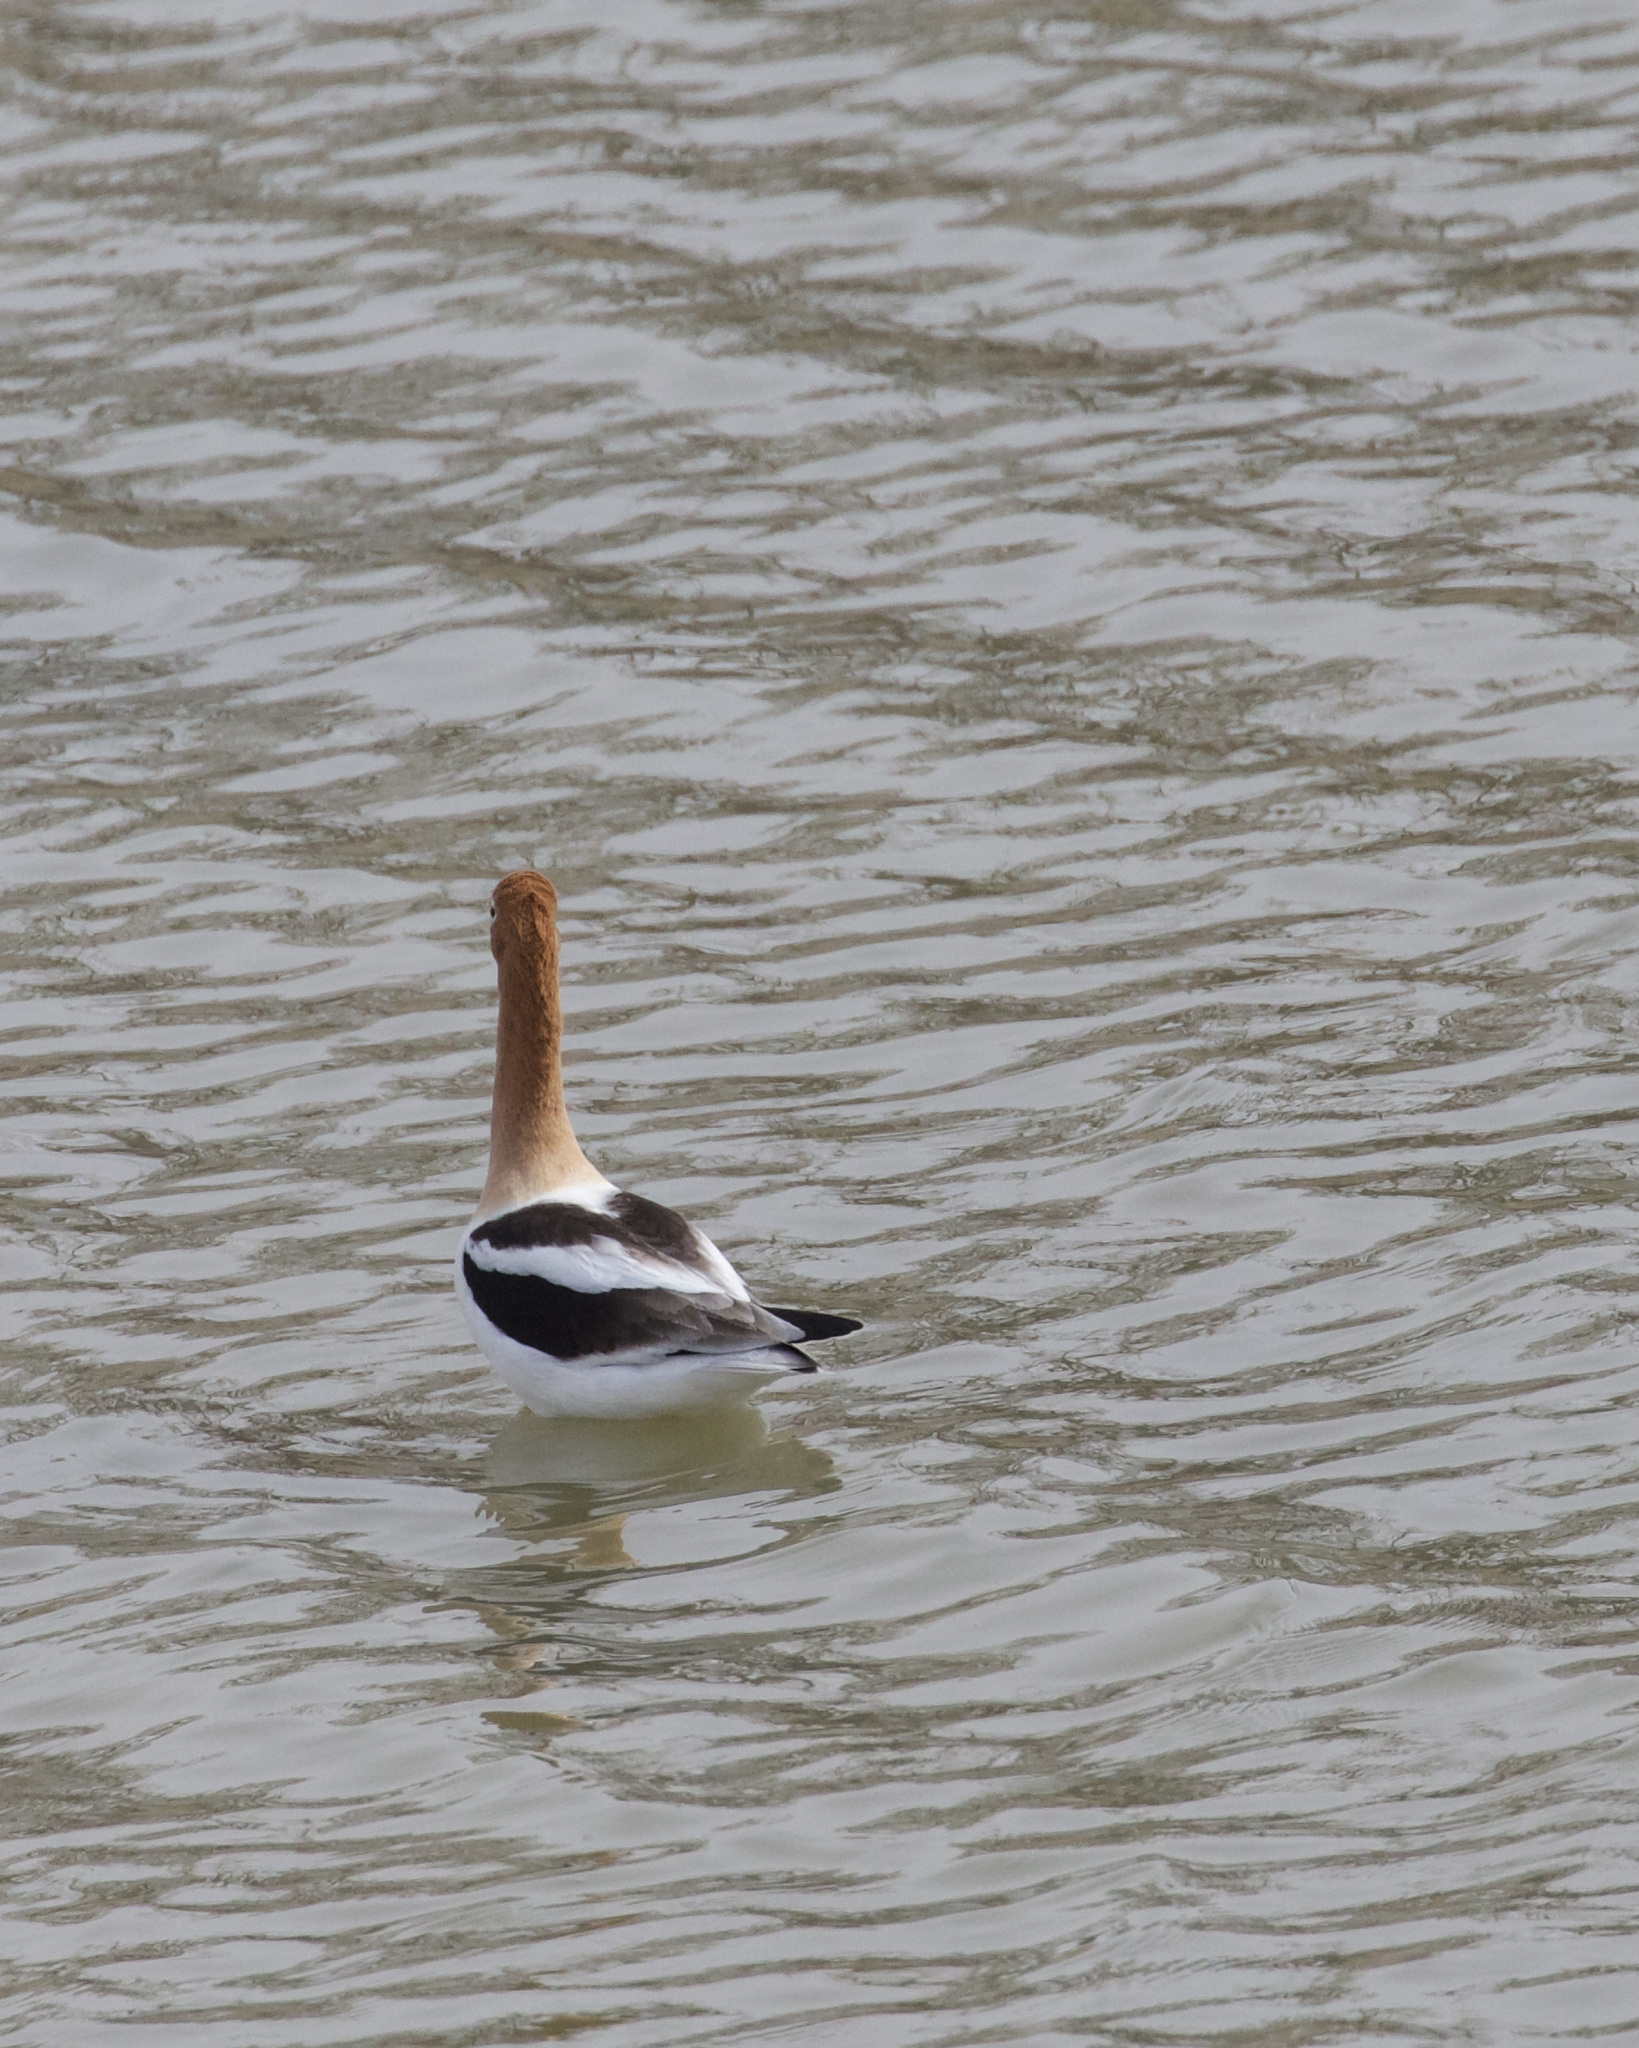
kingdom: Animalia
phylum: Chordata
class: Aves
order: Charadriiformes
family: Recurvirostridae
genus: Recurvirostra
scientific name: Recurvirostra americana
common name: American avocet
